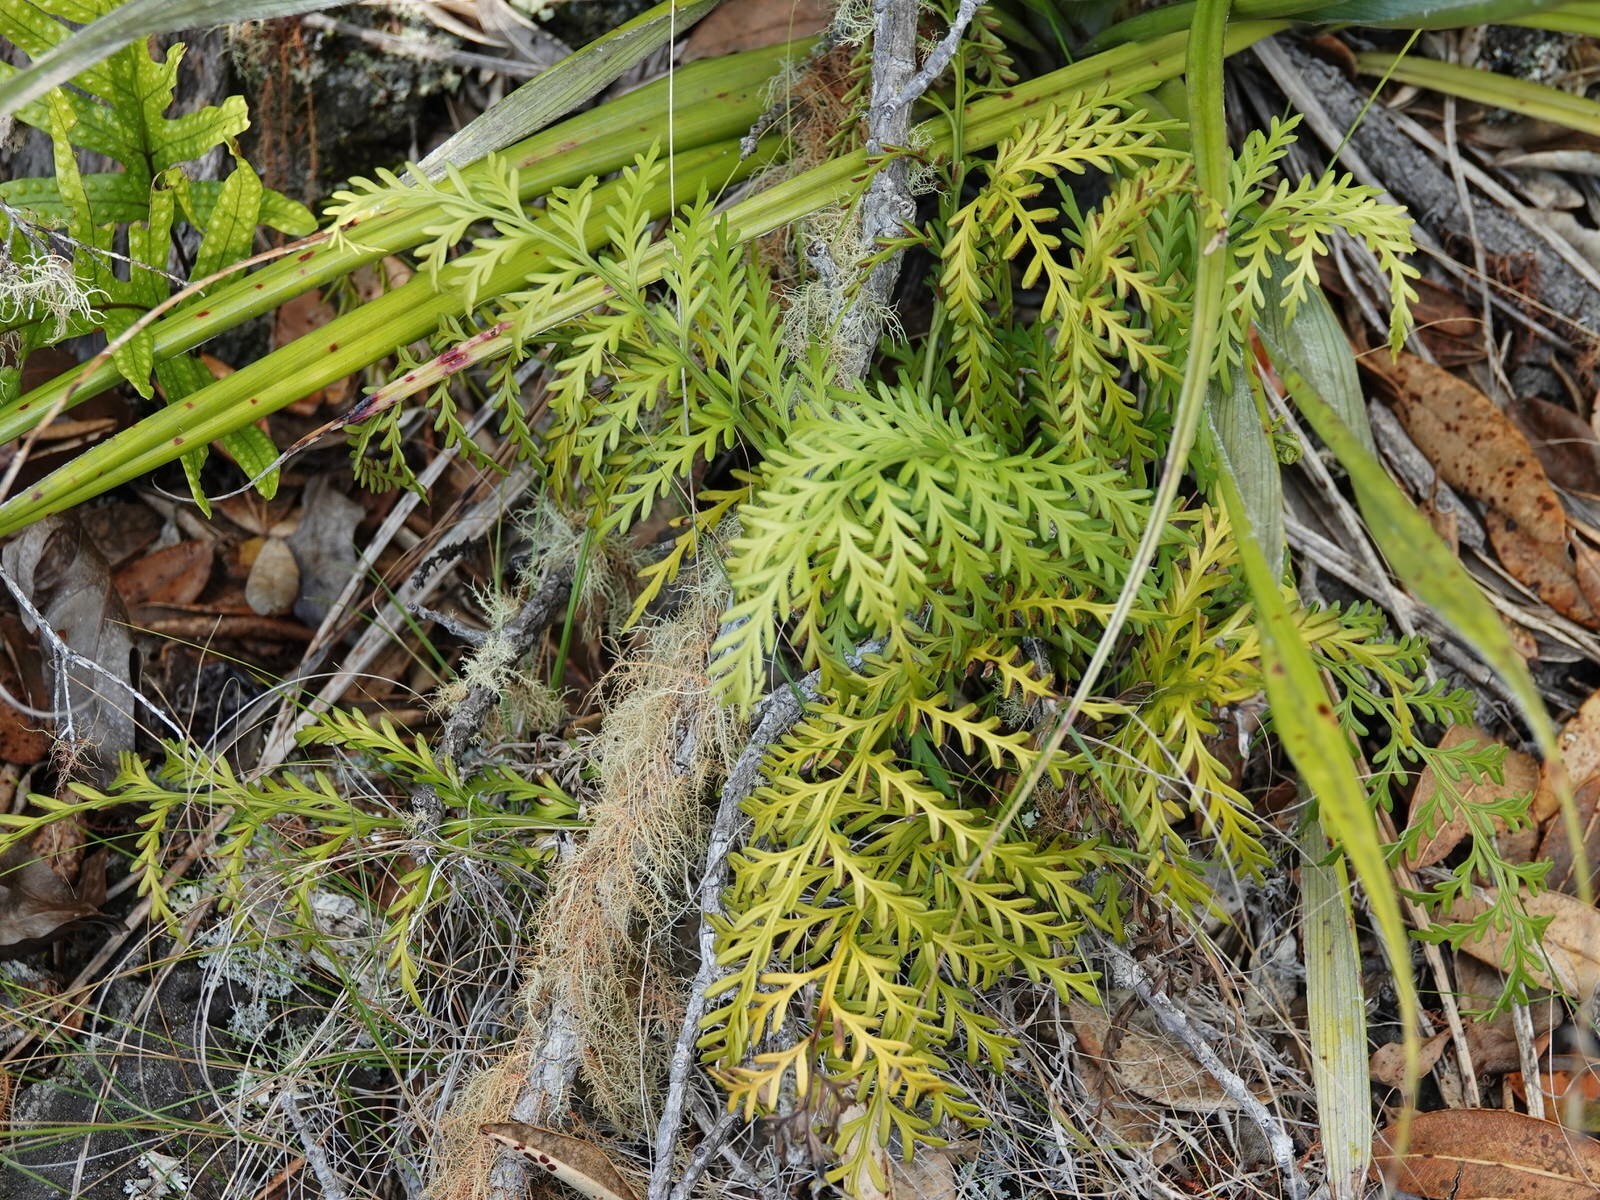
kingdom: Plantae
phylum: Tracheophyta
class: Polypodiopsida
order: Polypodiales
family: Aspleniaceae
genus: Asplenium
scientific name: Asplenium flaccidum
